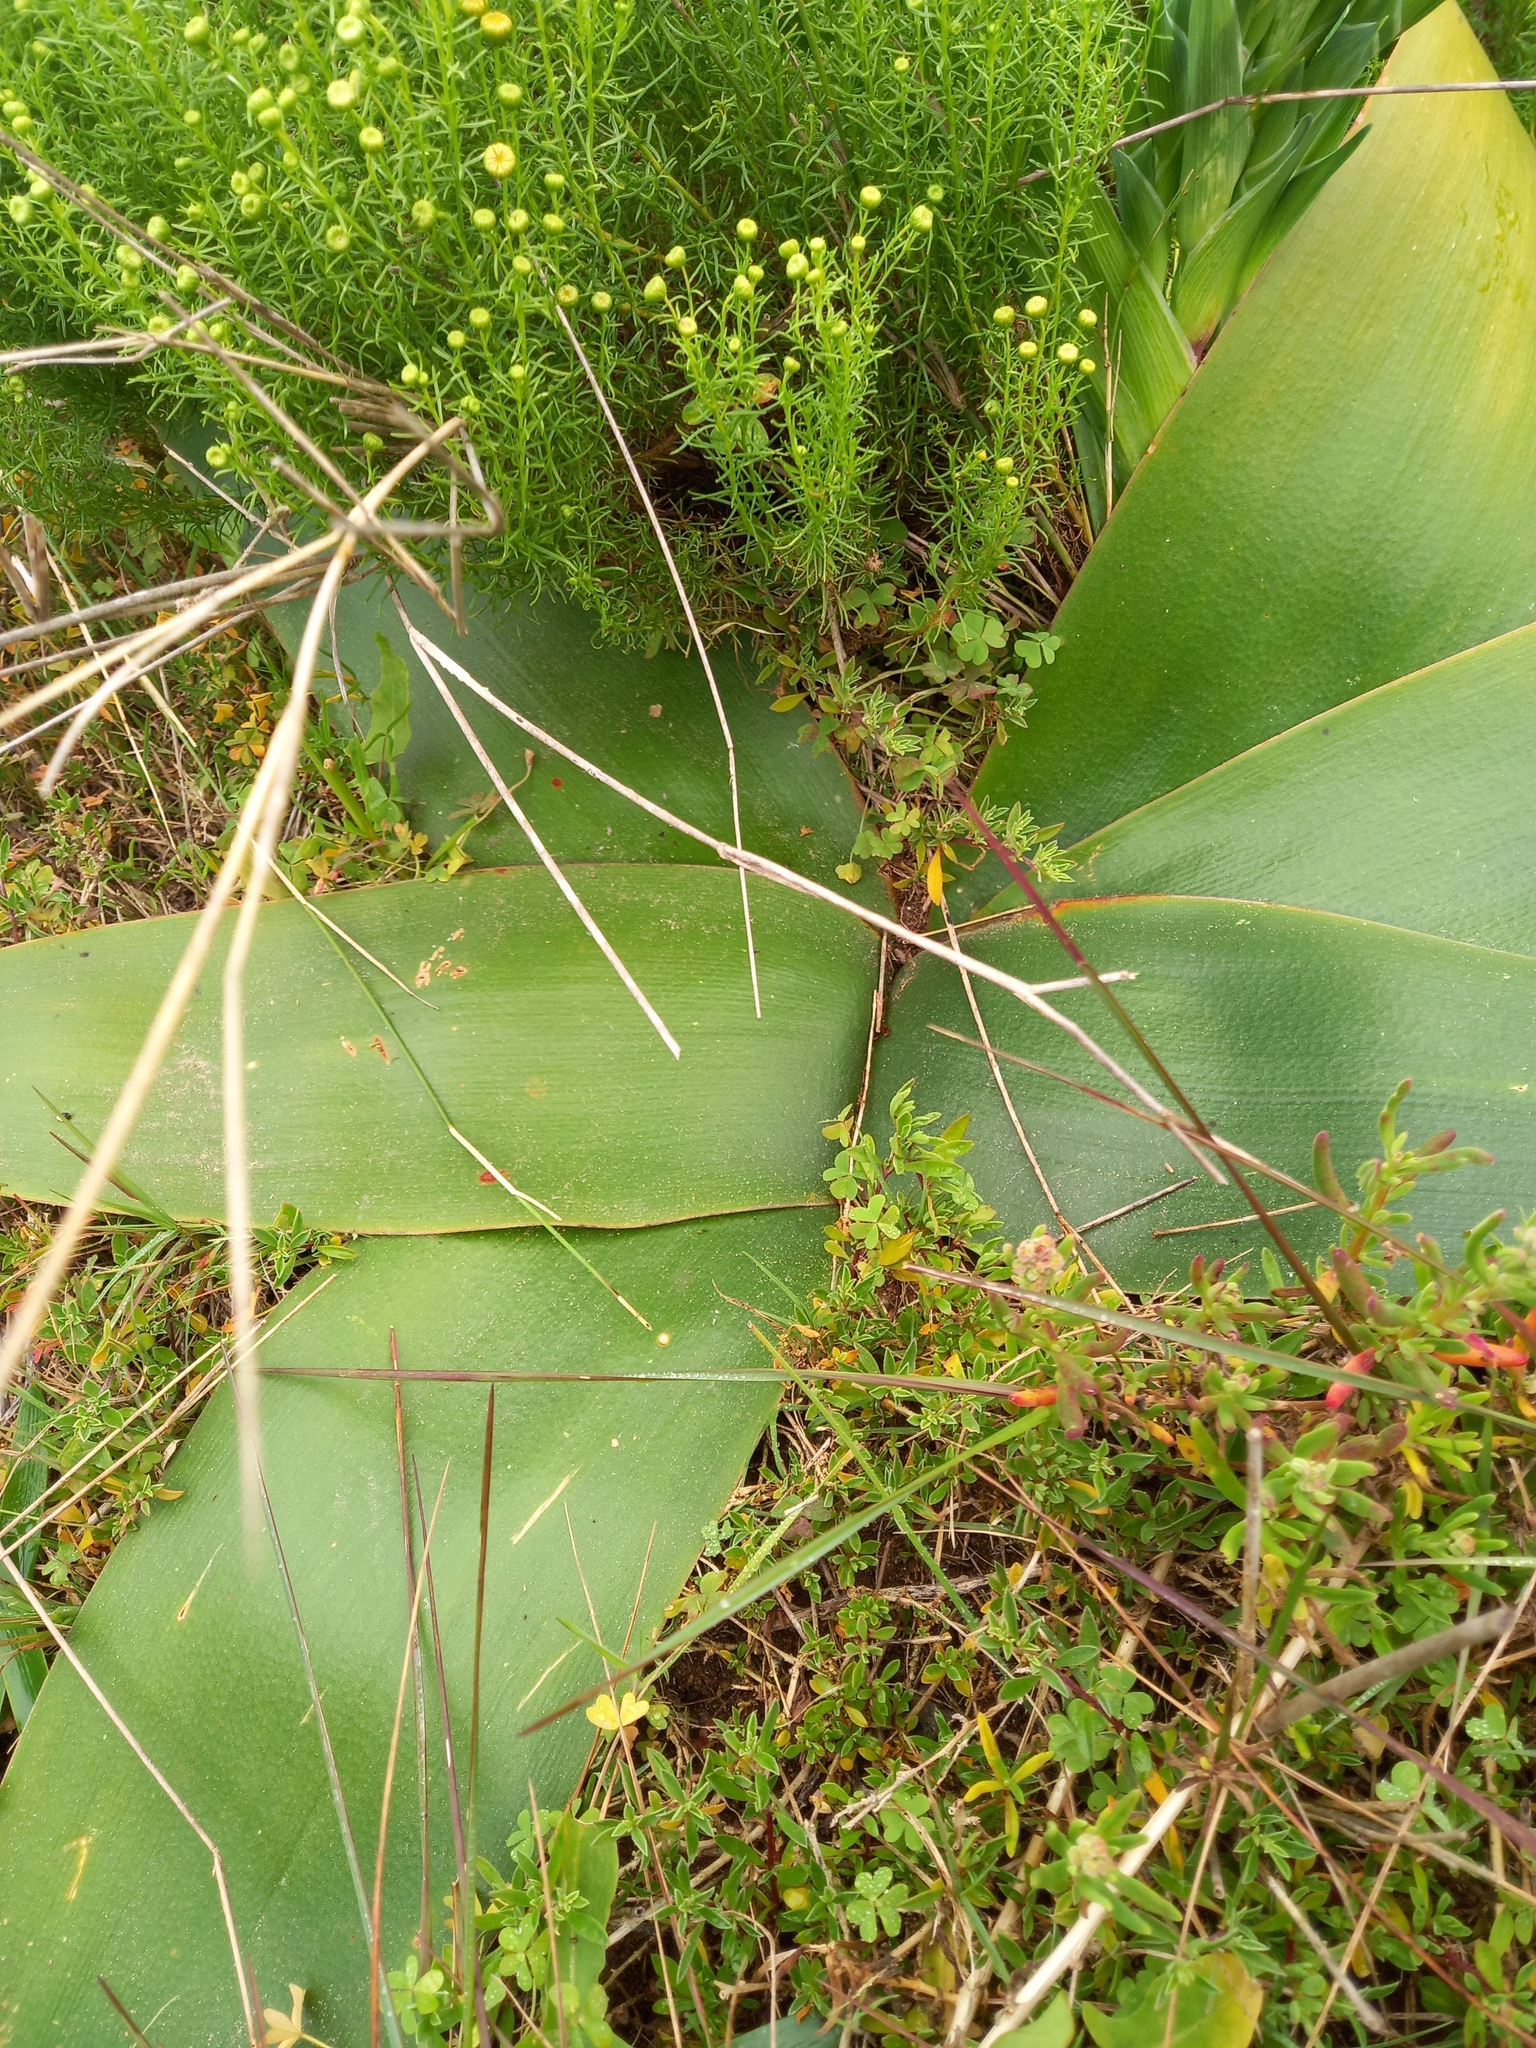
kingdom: Plantae
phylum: Tracheophyta
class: Liliopsida
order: Asparagales
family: Amaryllidaceae
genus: Brunsvigia
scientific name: Brunsvigia orientalis
